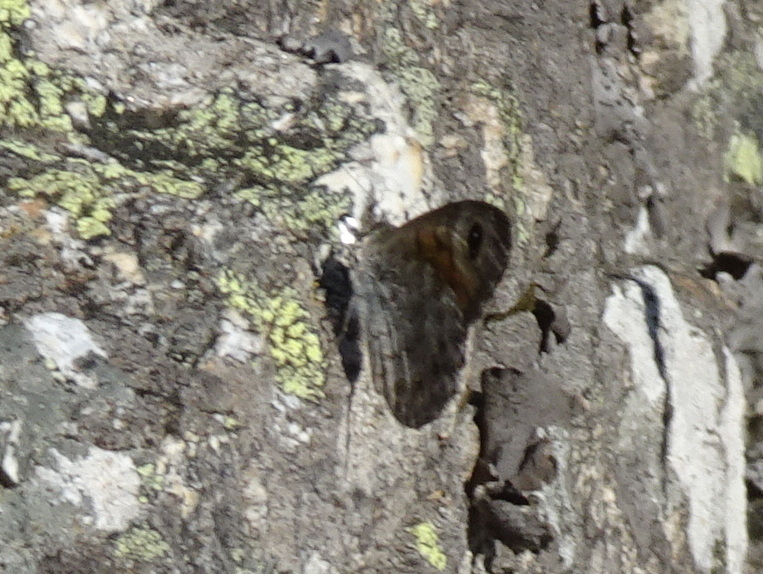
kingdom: Animalia
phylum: Arthropoda
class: Insecta
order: Lepidoptera
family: Nymphalidae
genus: Pararge
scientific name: Pararge Lasiommata maera
